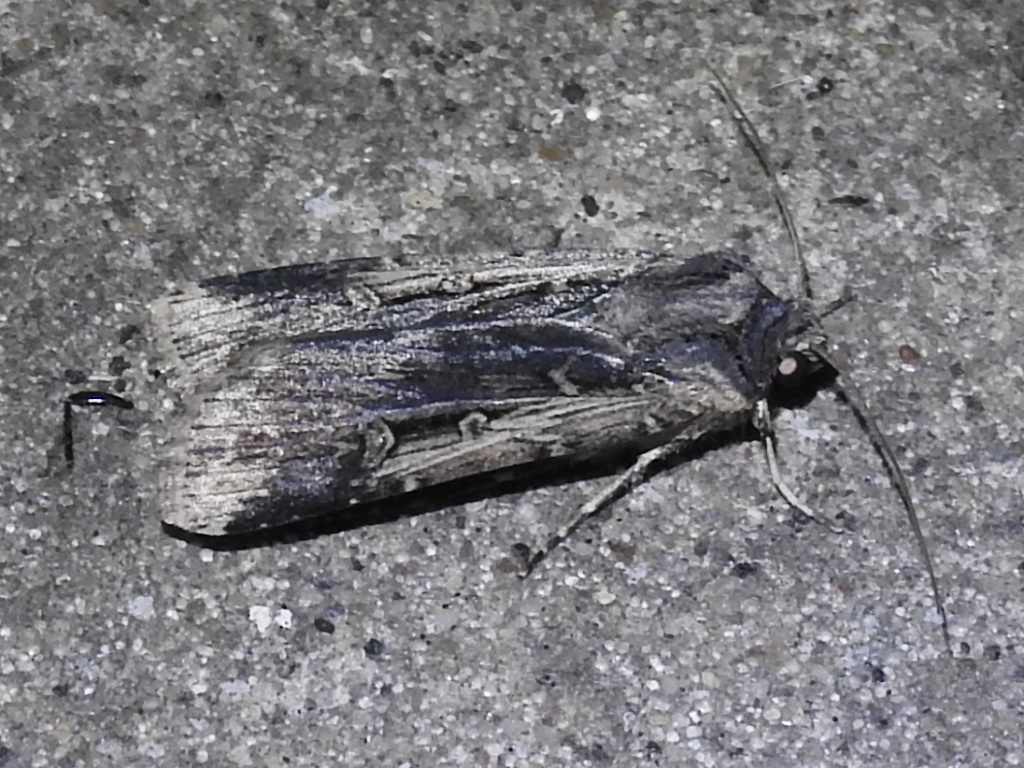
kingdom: Animalia
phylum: Arthropoda
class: Insecta
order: Lepidoptera
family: Noctuidae
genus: Feltia
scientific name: Feltia subterranea
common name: Granulate cutworm
